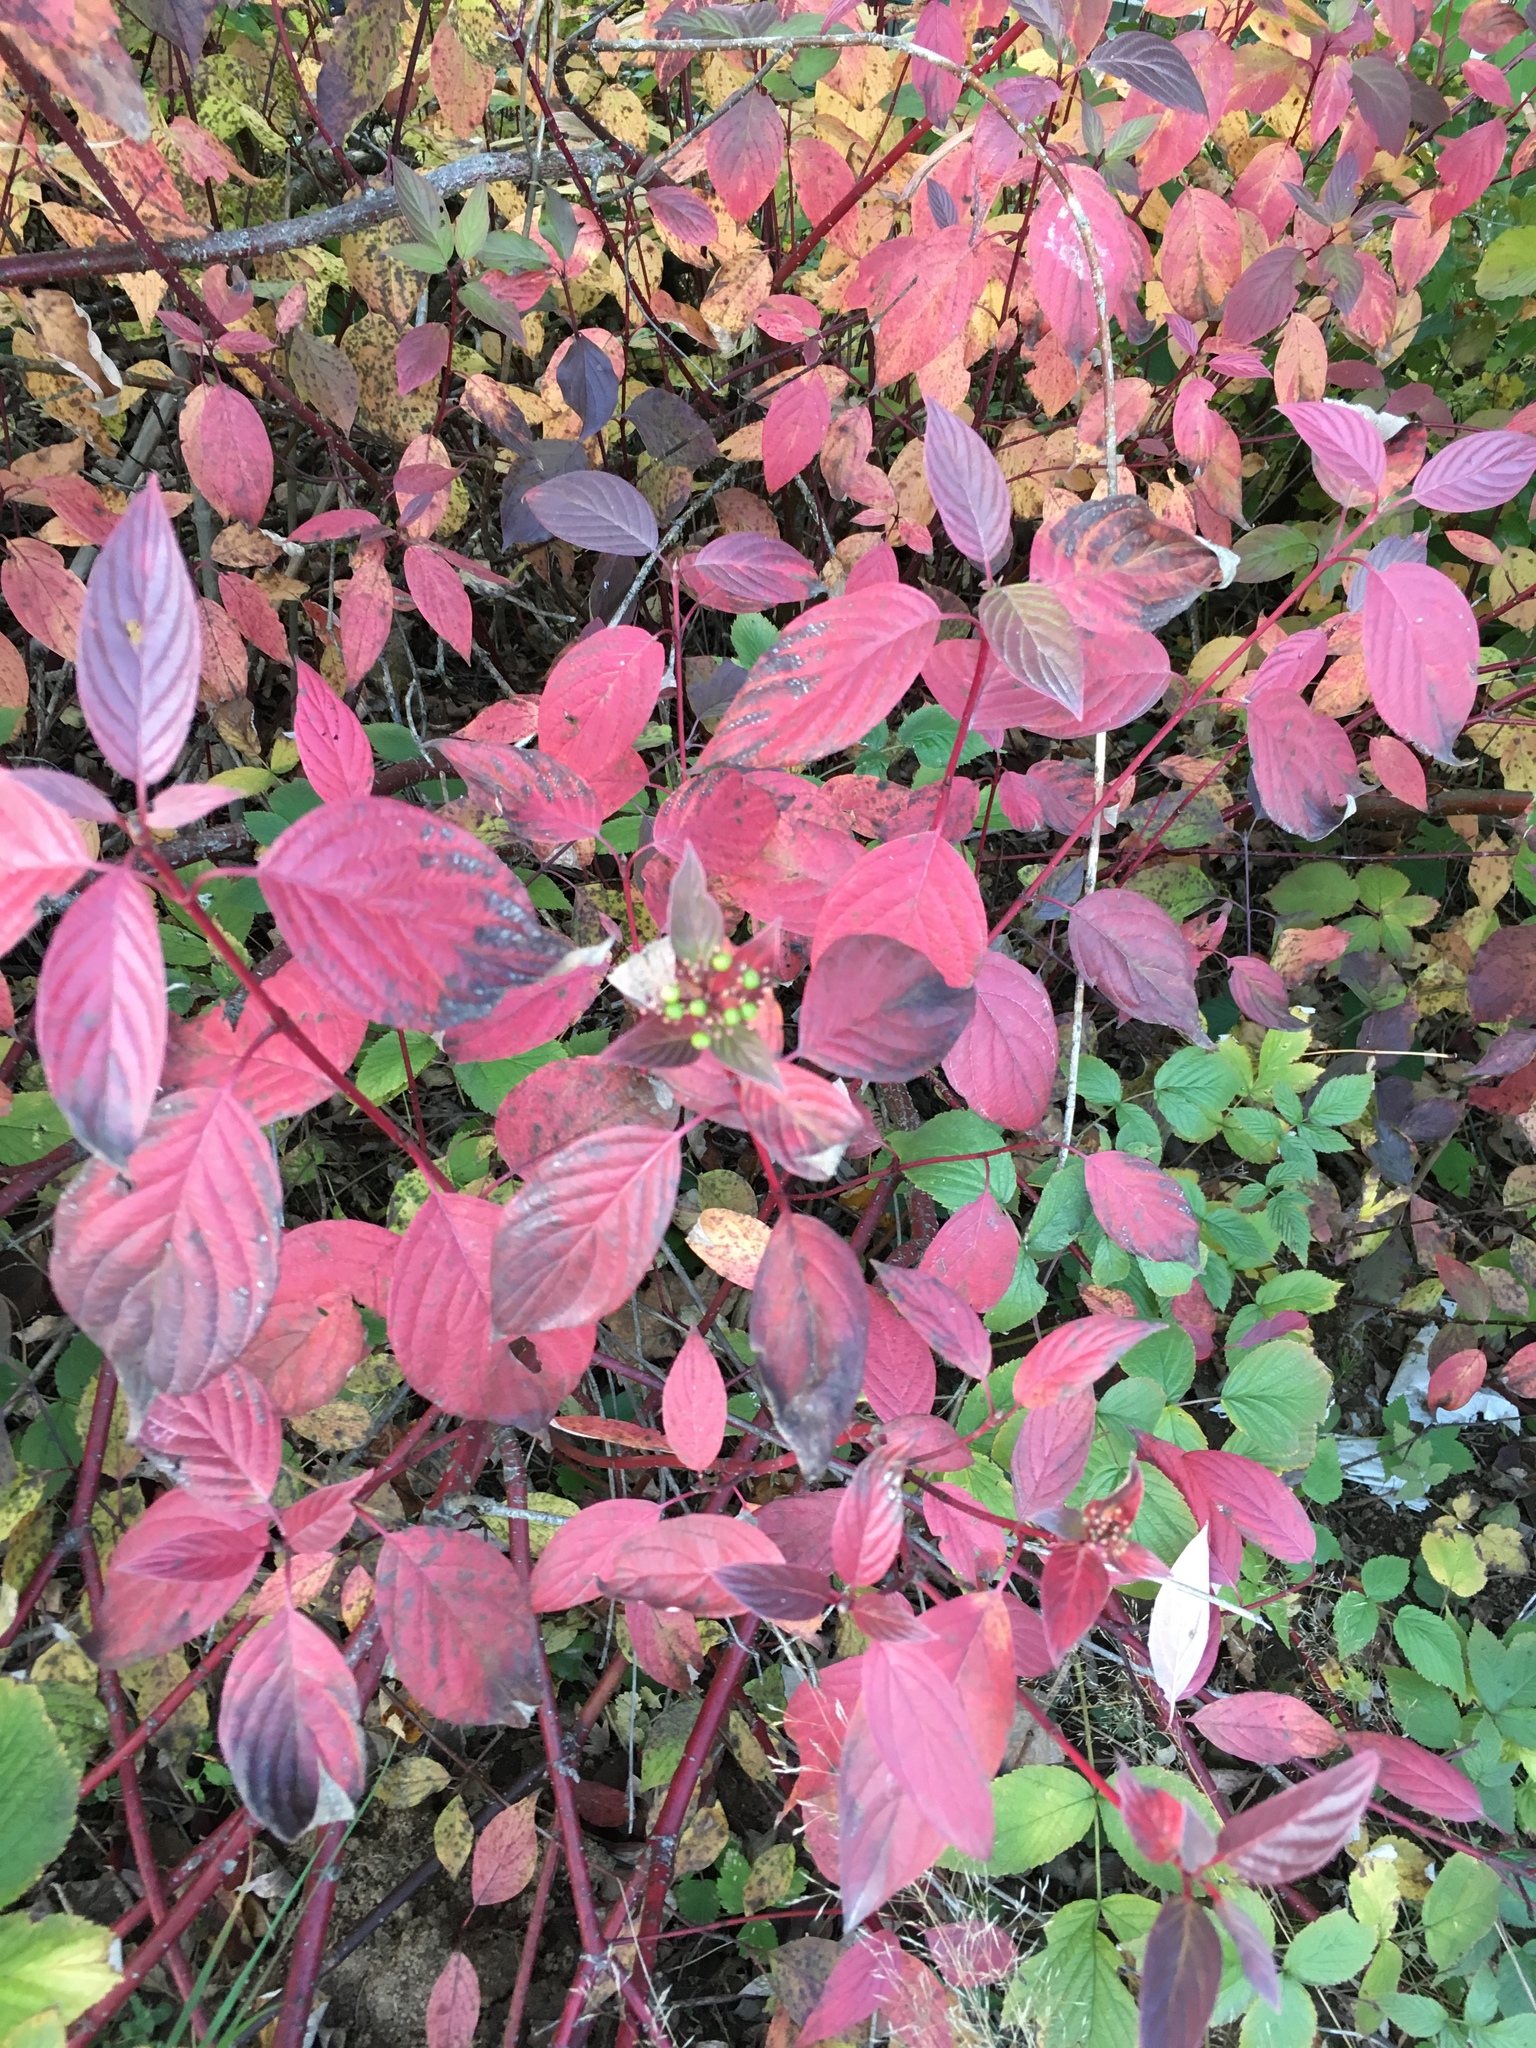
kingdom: Plantae
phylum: Tracheophyta
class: Magnoliopsida
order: Cornales
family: Cornaceae
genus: Cornus
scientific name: Cornus sanguinea
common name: Dogwood
